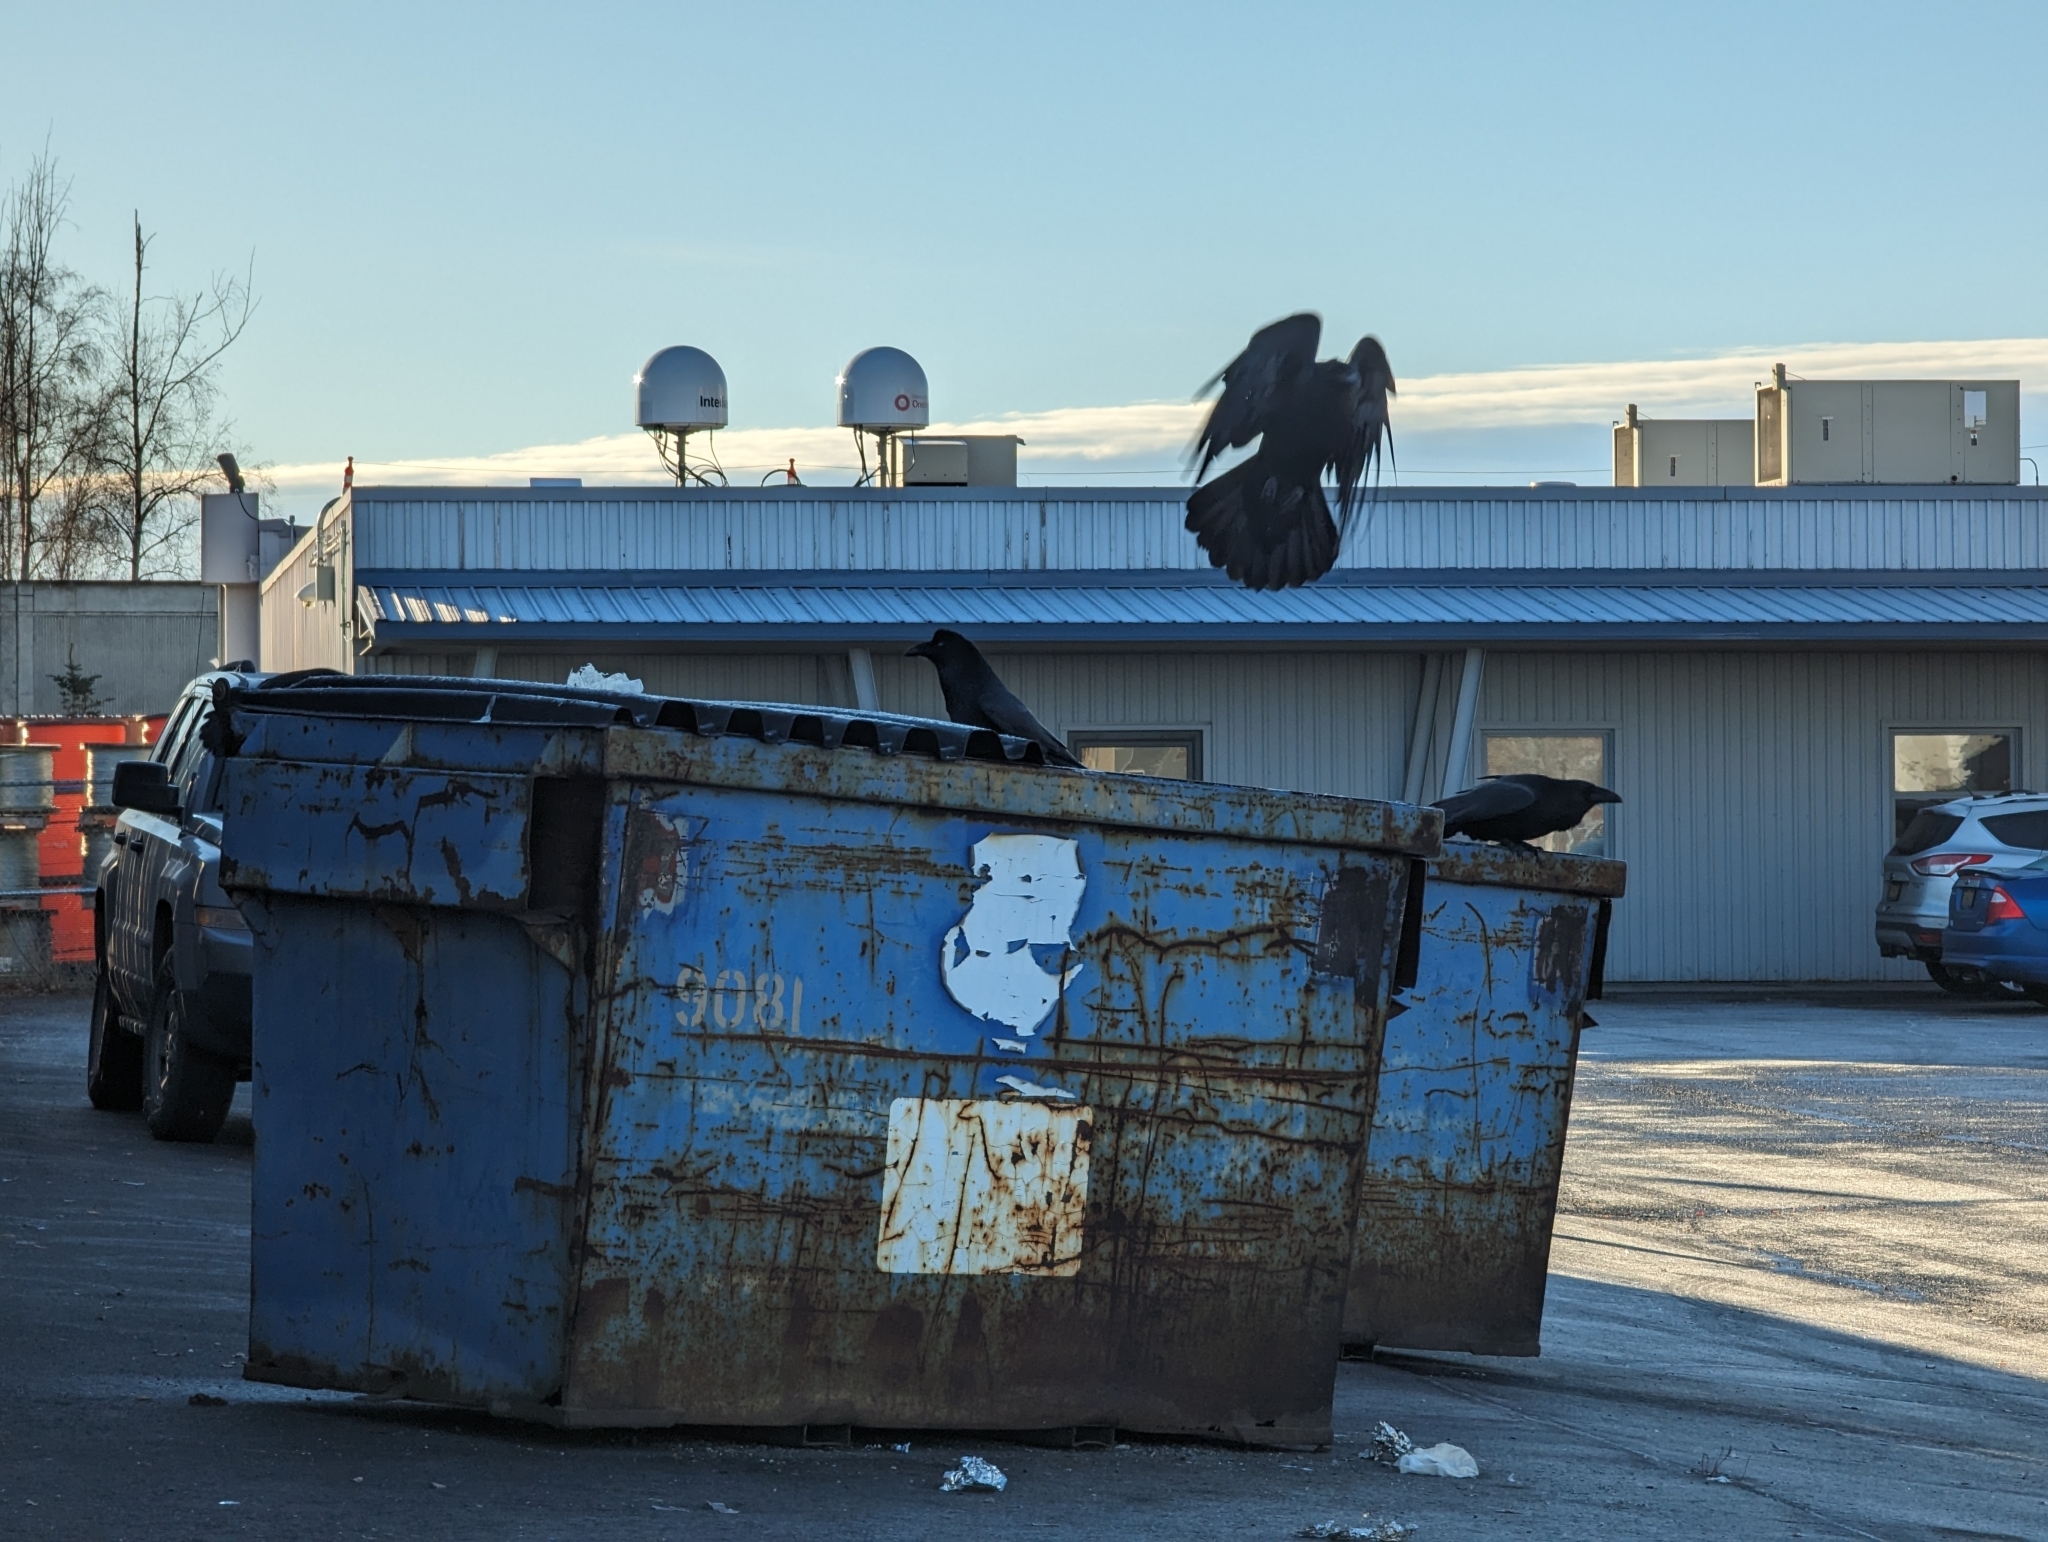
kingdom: Animalia
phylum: Chordata
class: Aves
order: Passeriformes
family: Corvidae
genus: Corvus
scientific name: Corvus corax
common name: Common raven
